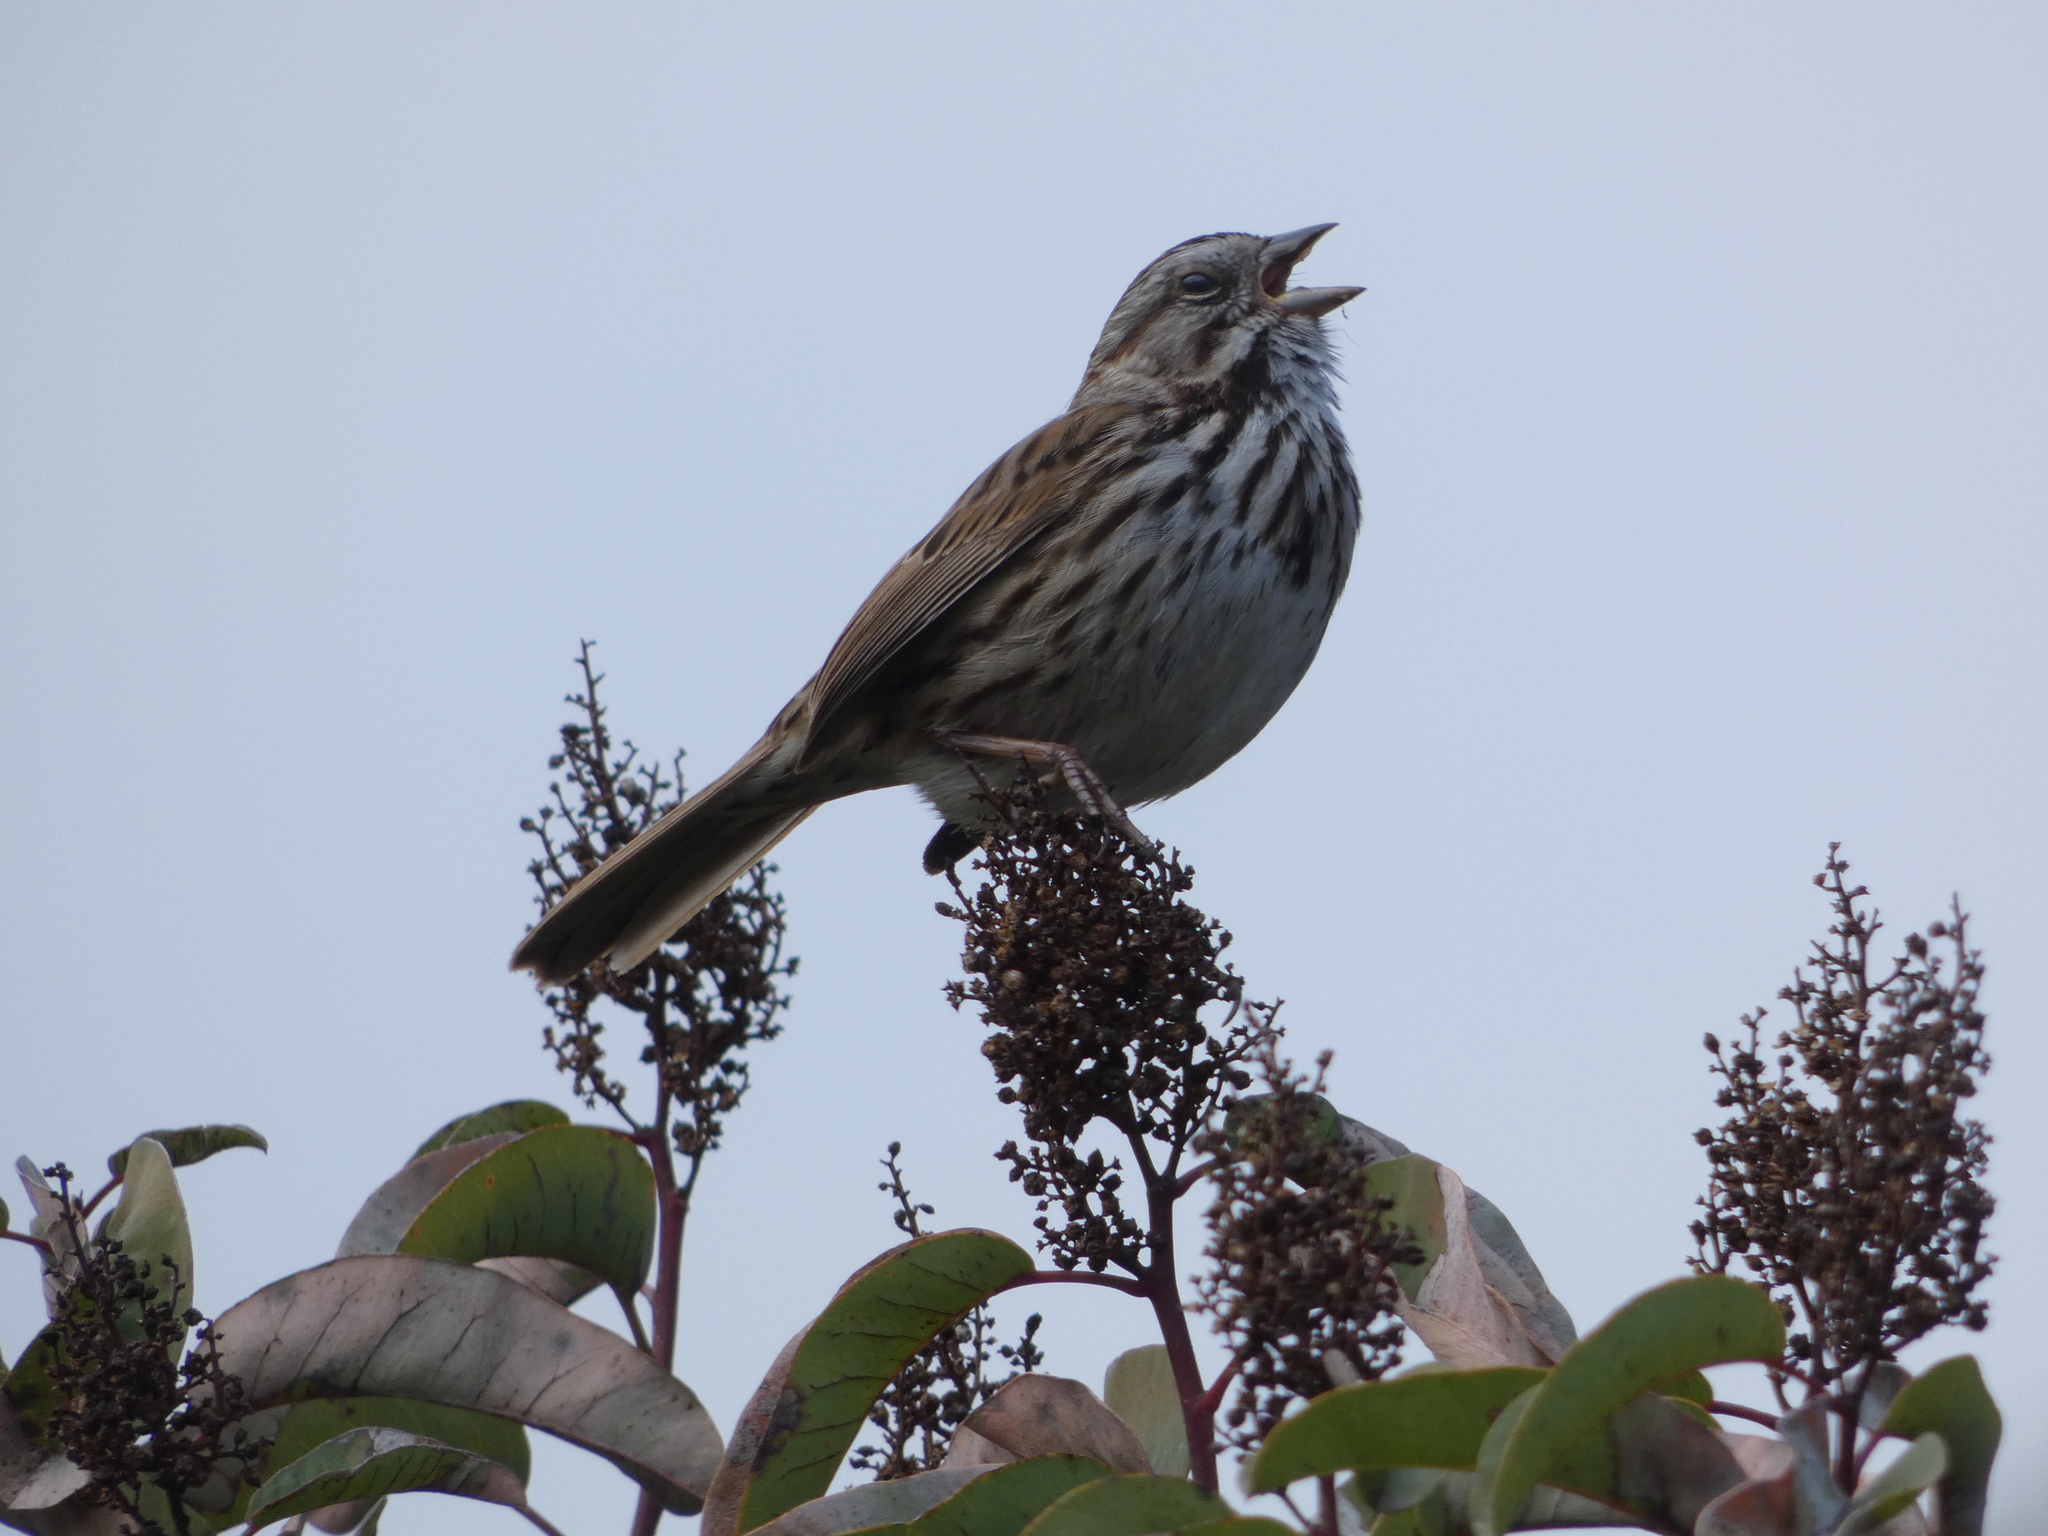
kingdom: Animalia
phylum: Chordata
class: Aves
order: Passeriformes
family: Passerellidae
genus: Melospiza
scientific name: Melospiza melodia
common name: Song sparrow
